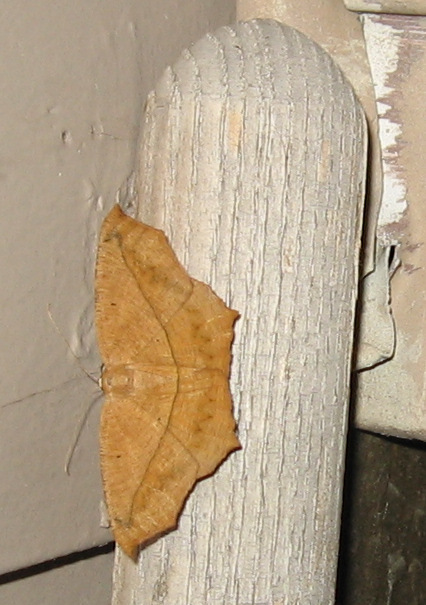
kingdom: Animalia
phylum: Arthropoda
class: Insecta
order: Lepidoptera
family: Geometridae
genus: Prochoerodes
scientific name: Prochoerodes lineola
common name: Large maple spanworm
